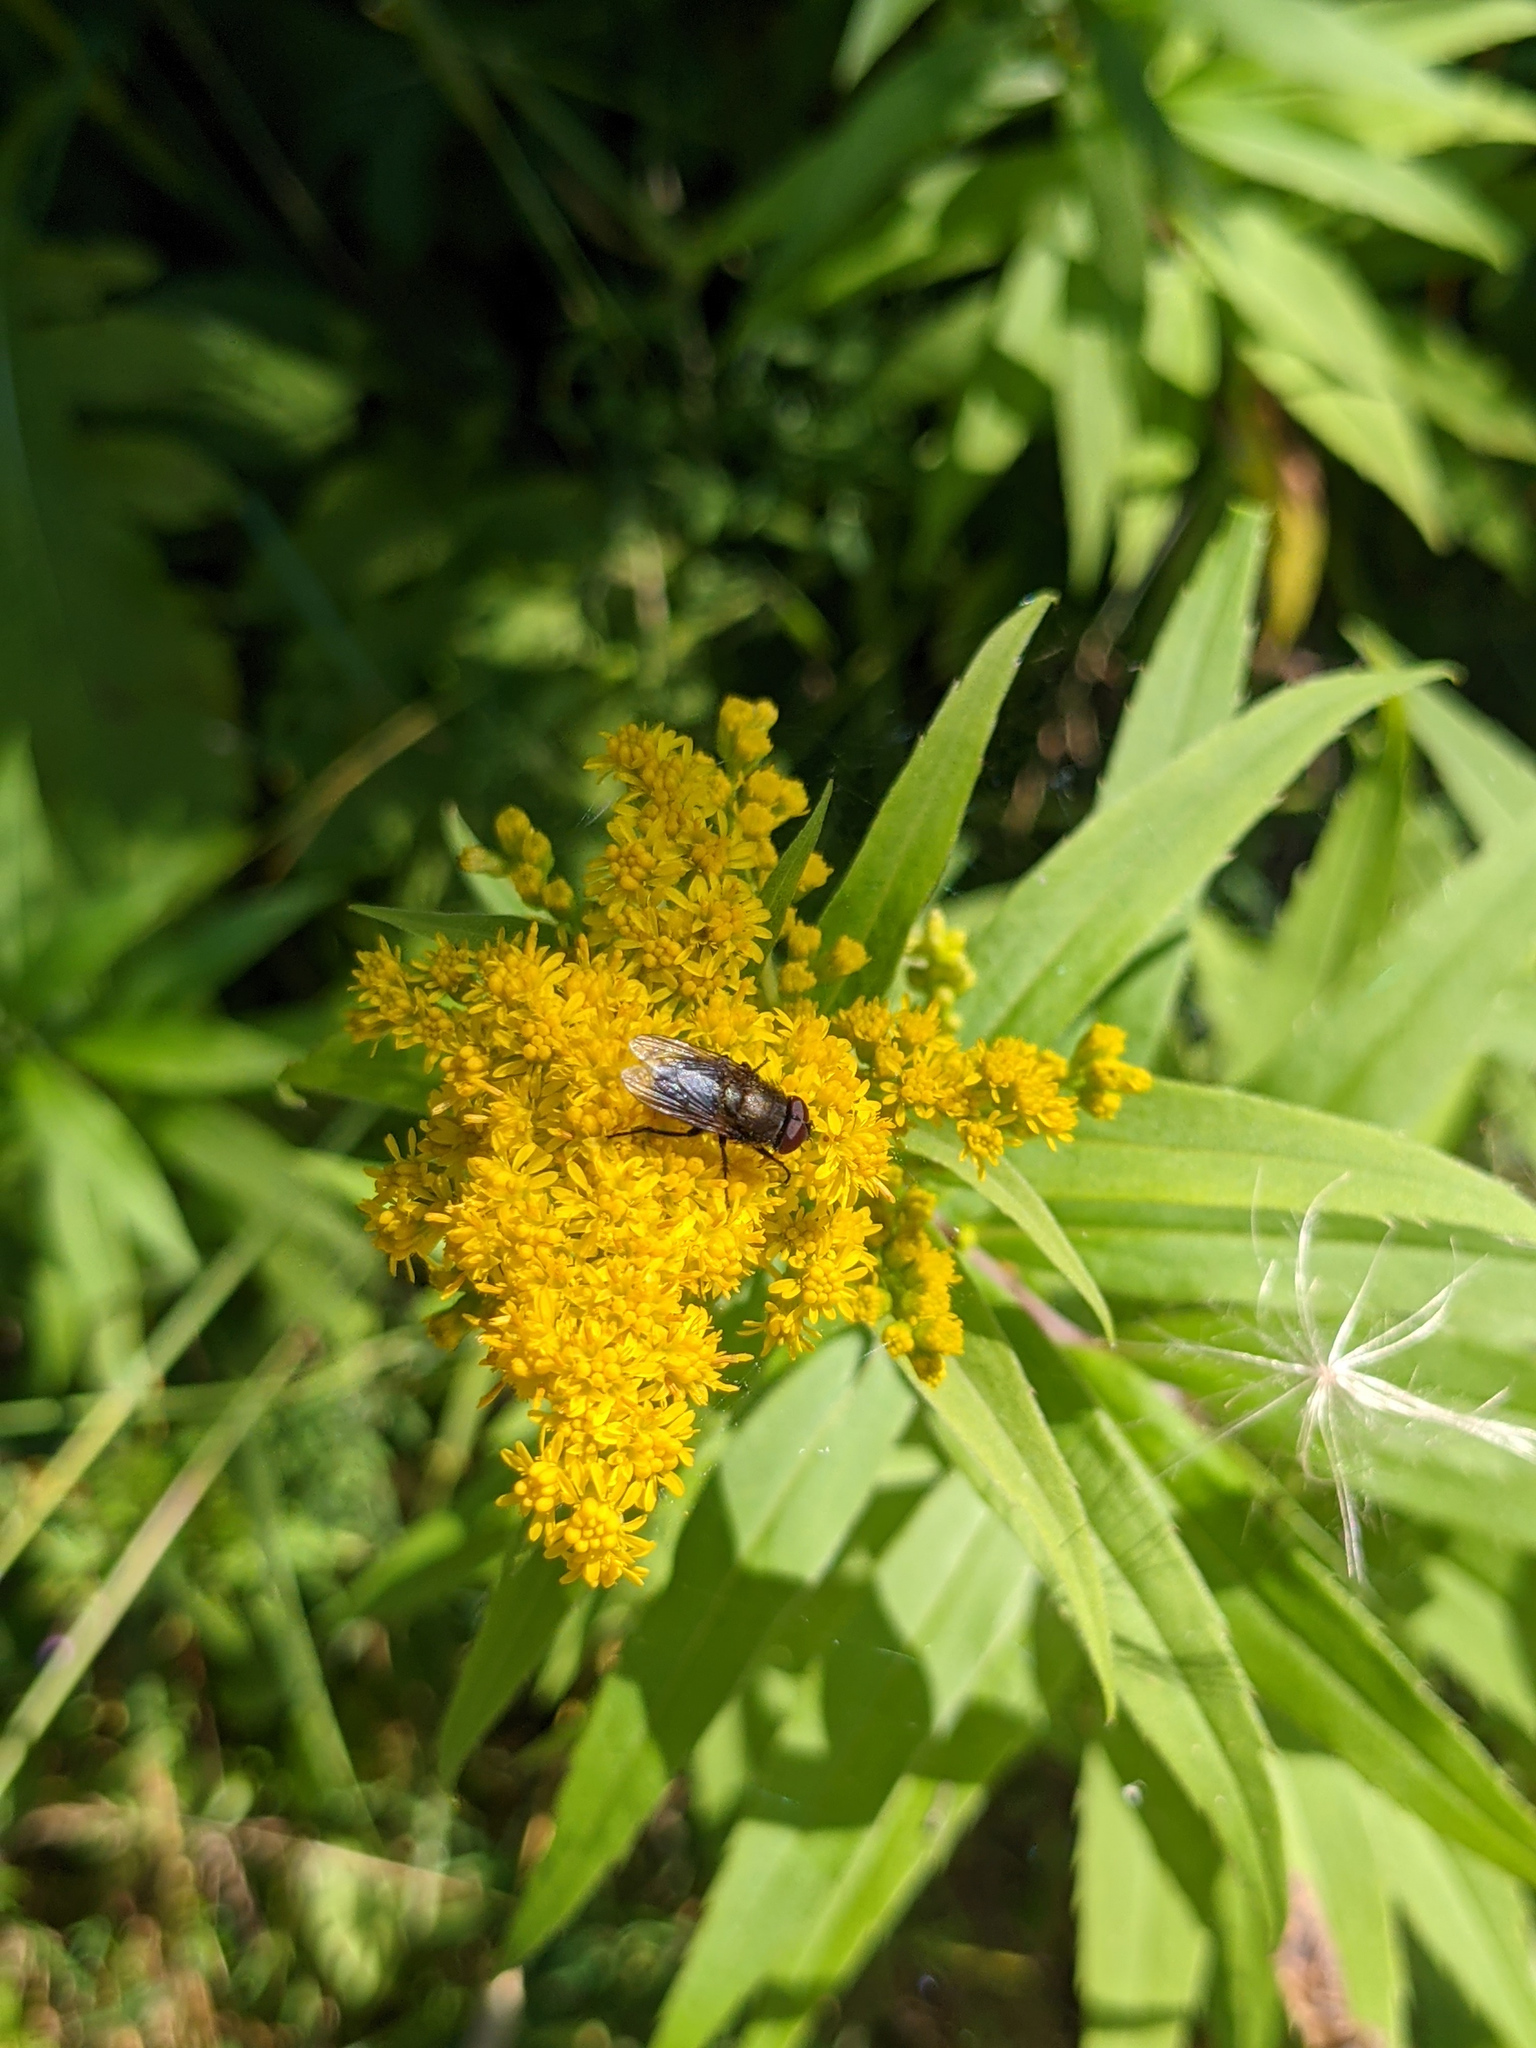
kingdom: Plantae
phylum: Tracheophyta
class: Magnoliopsida
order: Asterales
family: Asteraceae
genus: Solidago
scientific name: Solidago gigantea
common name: Giant goldenrod
